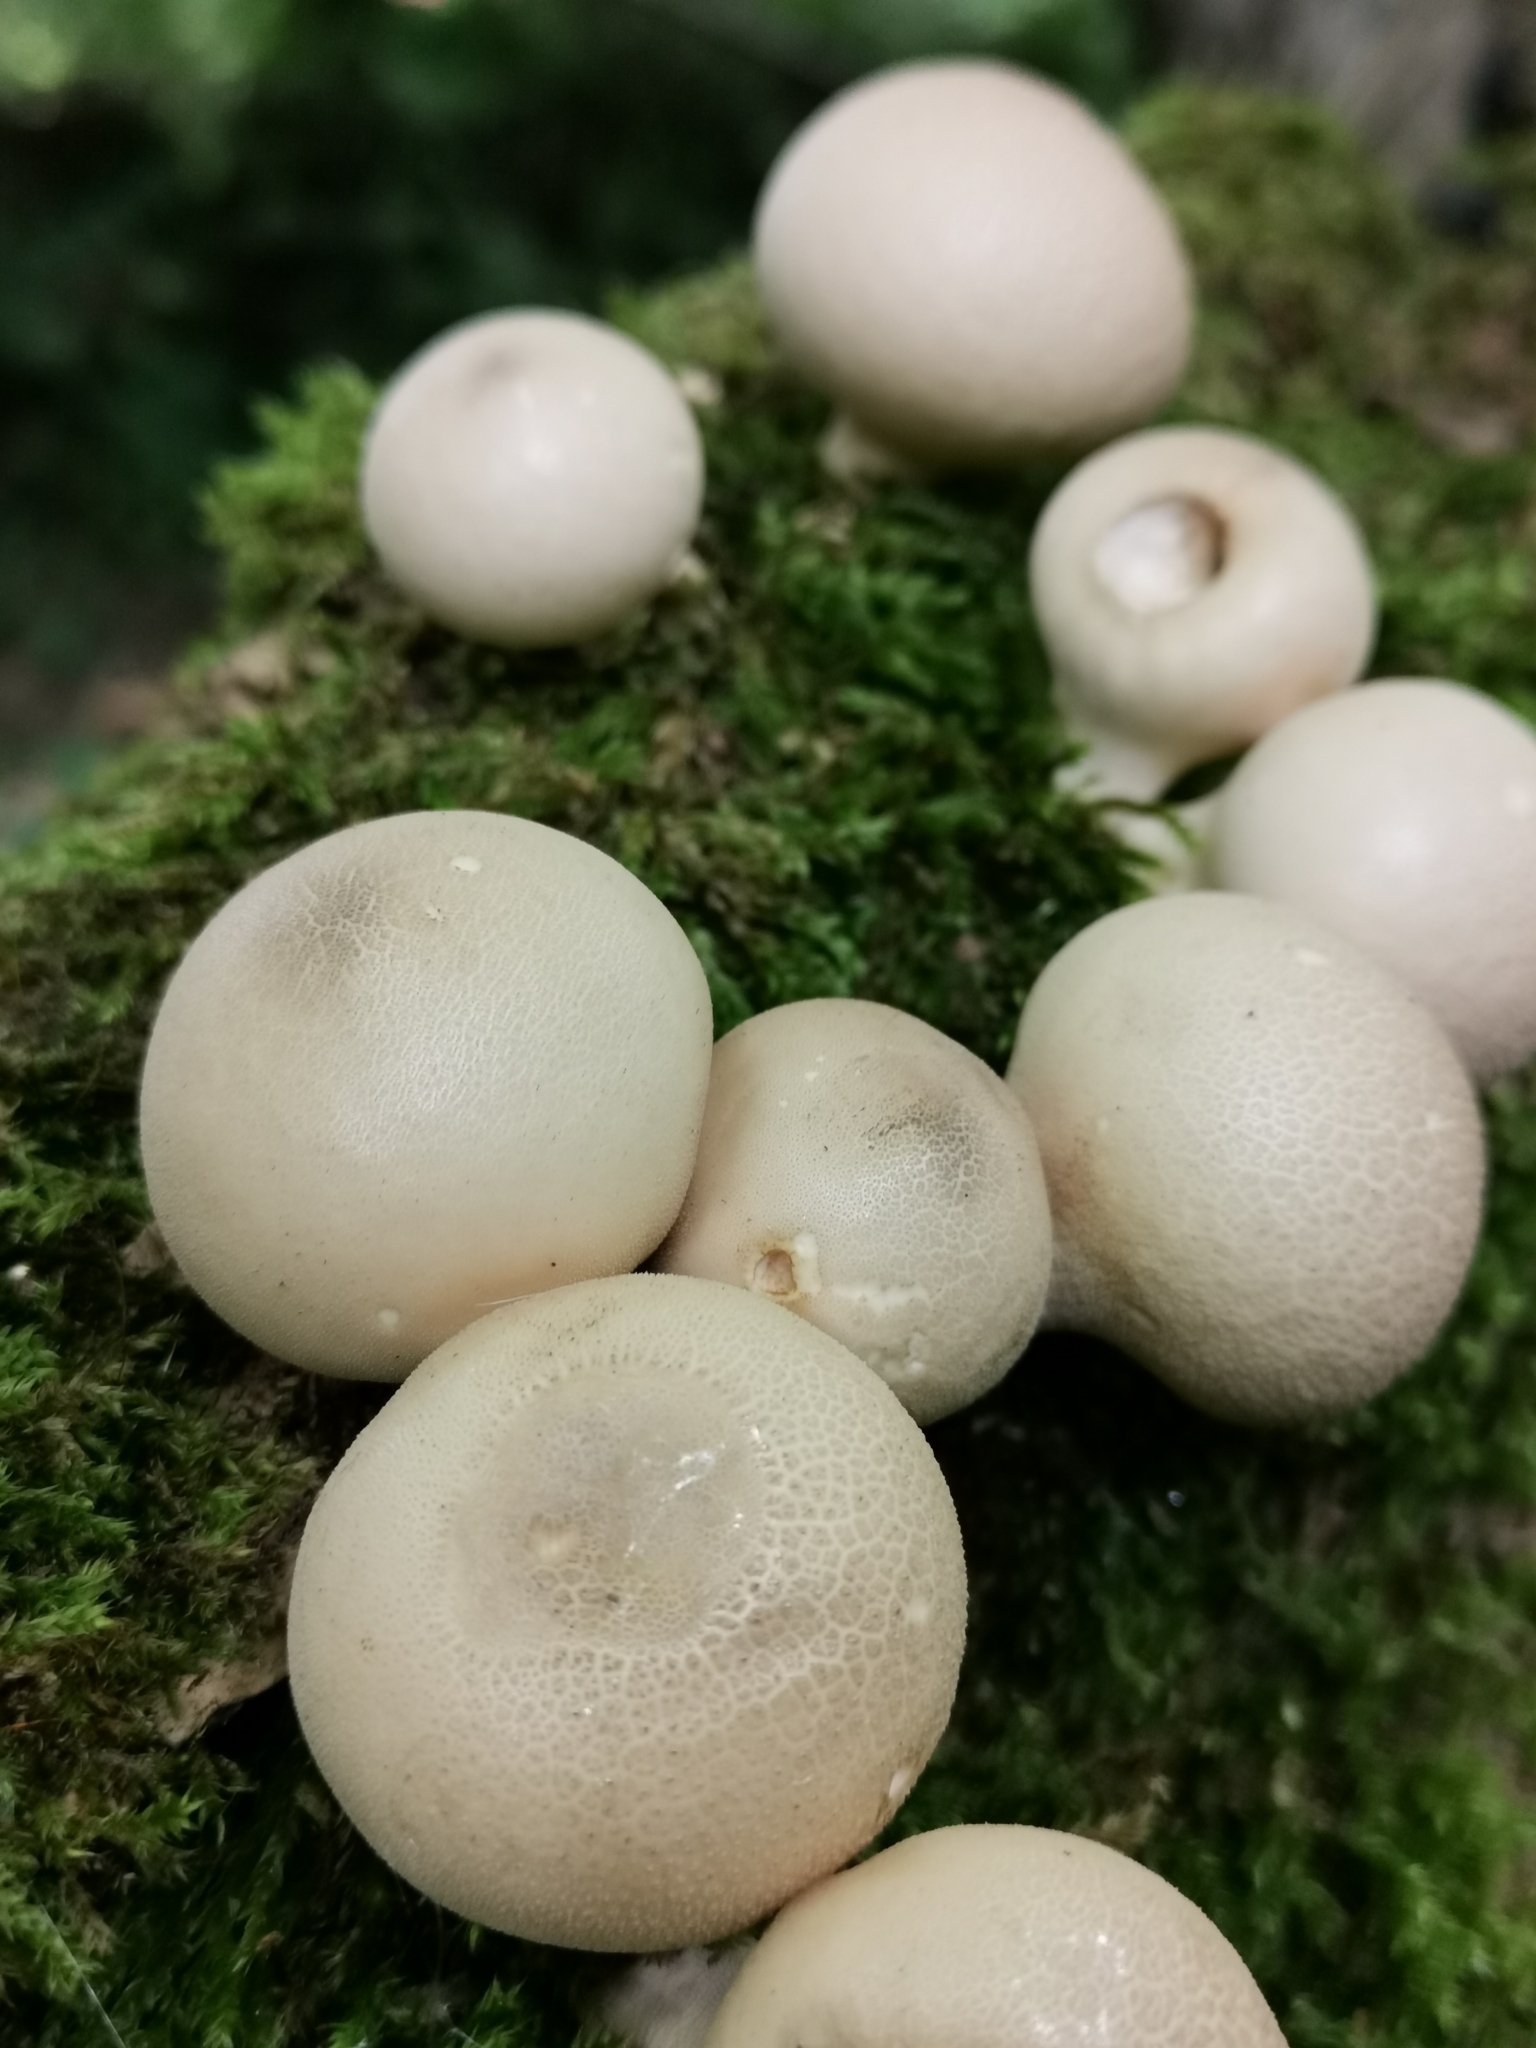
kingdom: Fungi
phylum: Basidiomycota
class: Agaricomycetes
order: Agaricales
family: Lycoperdaceae
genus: Apioperdon
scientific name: Apioperdon pyriforme
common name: Pear-shaped puffball
